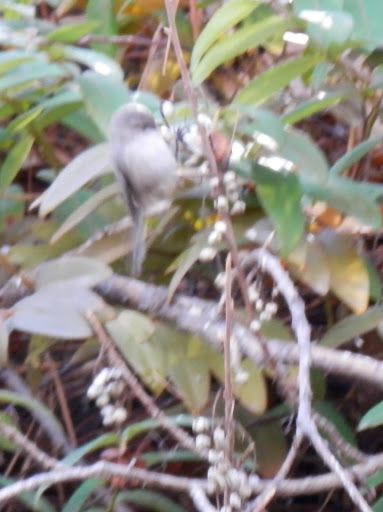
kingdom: Animalia
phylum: Chordata
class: Aves
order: Passeriformes
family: Aegithalidae
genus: Psaltriparus
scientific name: Psaltriparus minimus
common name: American bushtit
